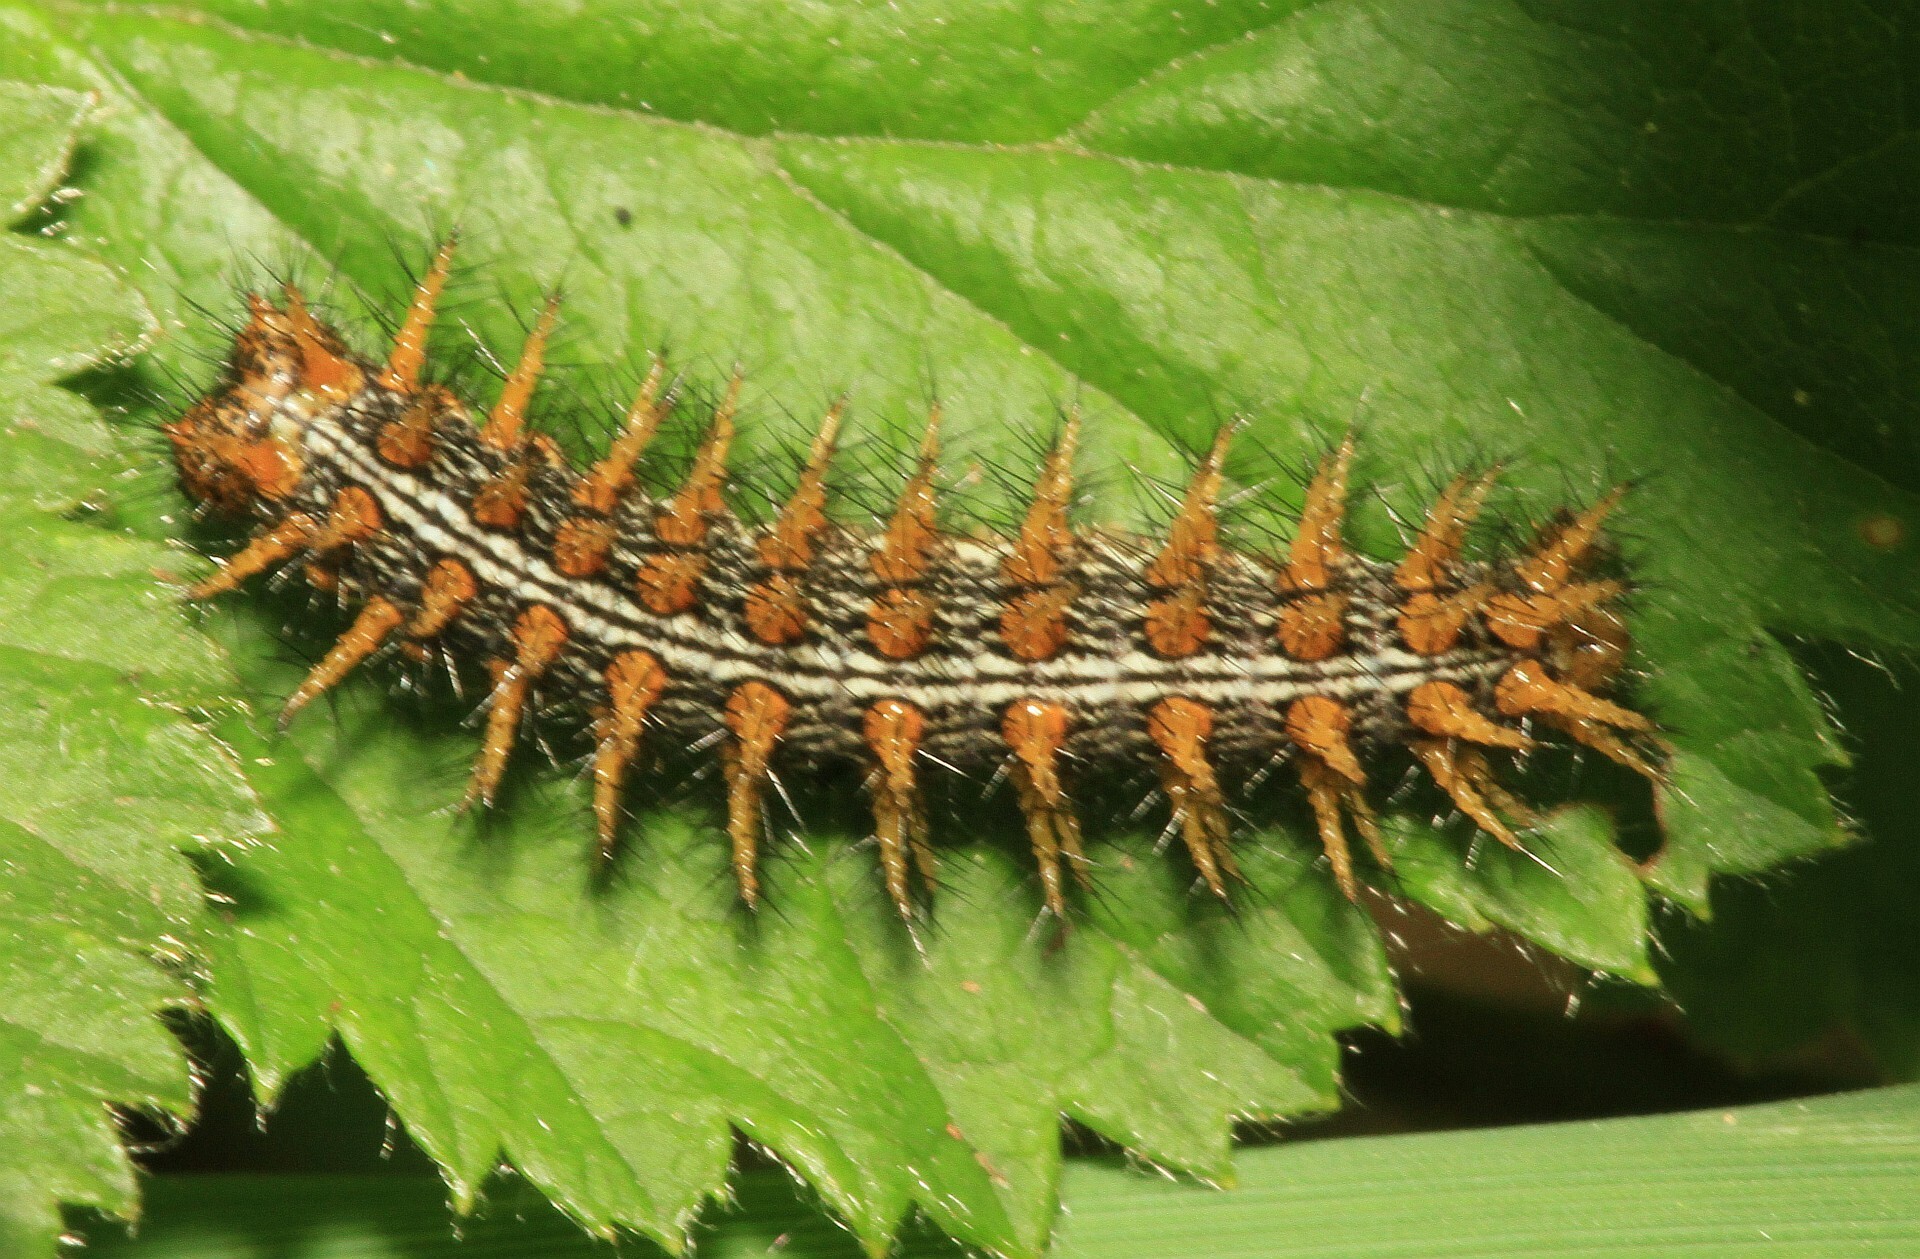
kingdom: Animalia
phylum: Arthropoda
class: Insecta
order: Lepidoptera
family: Nymphalidae
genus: Brenthis
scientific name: Brenthis daphne
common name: Marbled fritillary
